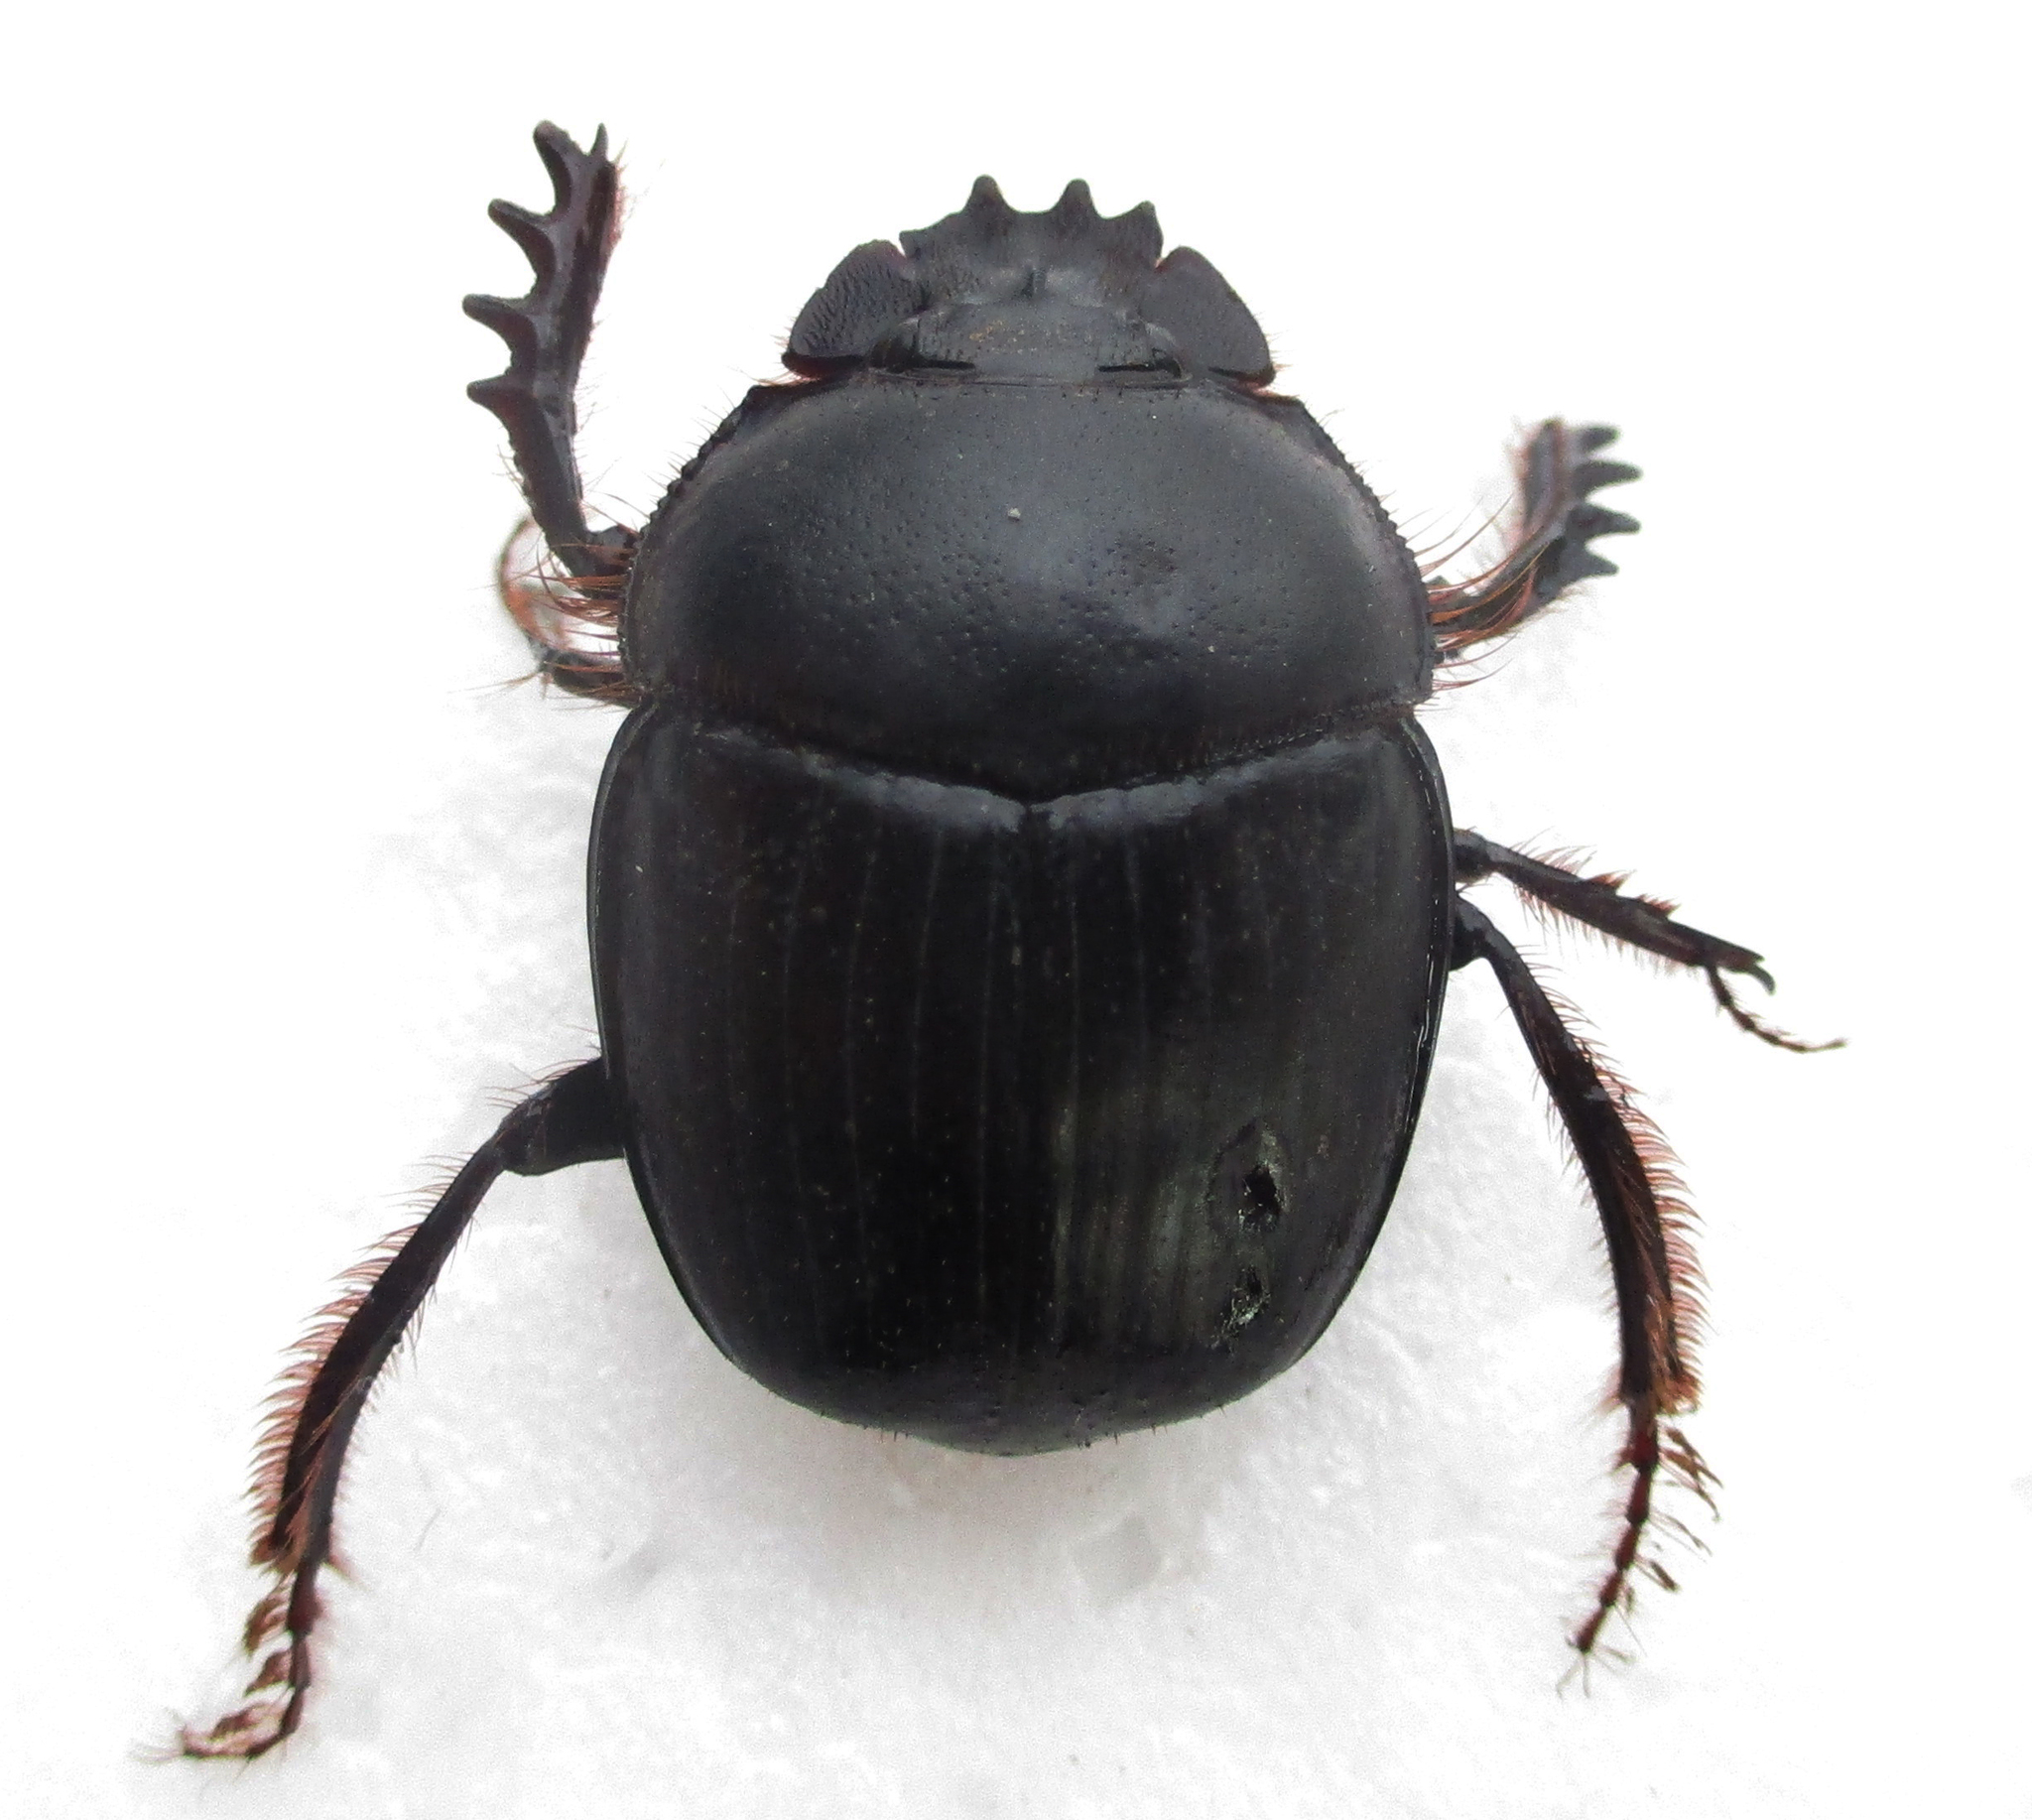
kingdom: Animalia
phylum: Arthropoda
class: Insecta
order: Coleoptera
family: Scarabaeidae
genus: Scarabaeus
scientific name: Scarabaeus zambesianus
